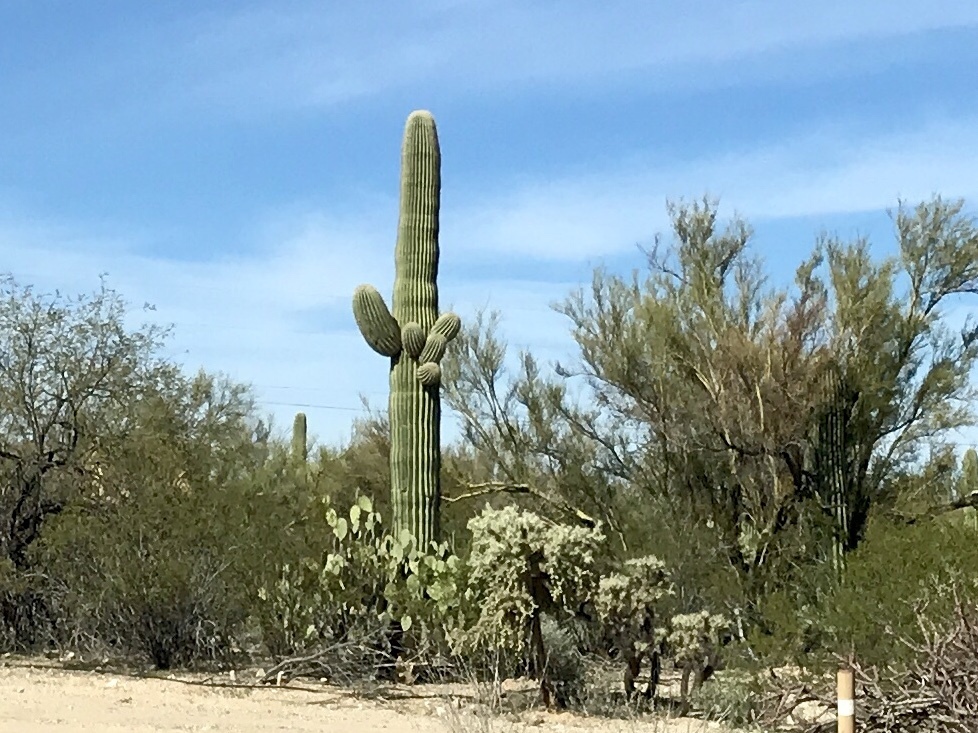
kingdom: Plantae
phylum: Tracheophyta
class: Magnoliopsida
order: Caryophyllales
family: Cactaceae
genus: Carnegiea
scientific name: Carnegiea gigantea
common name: Saguaro
